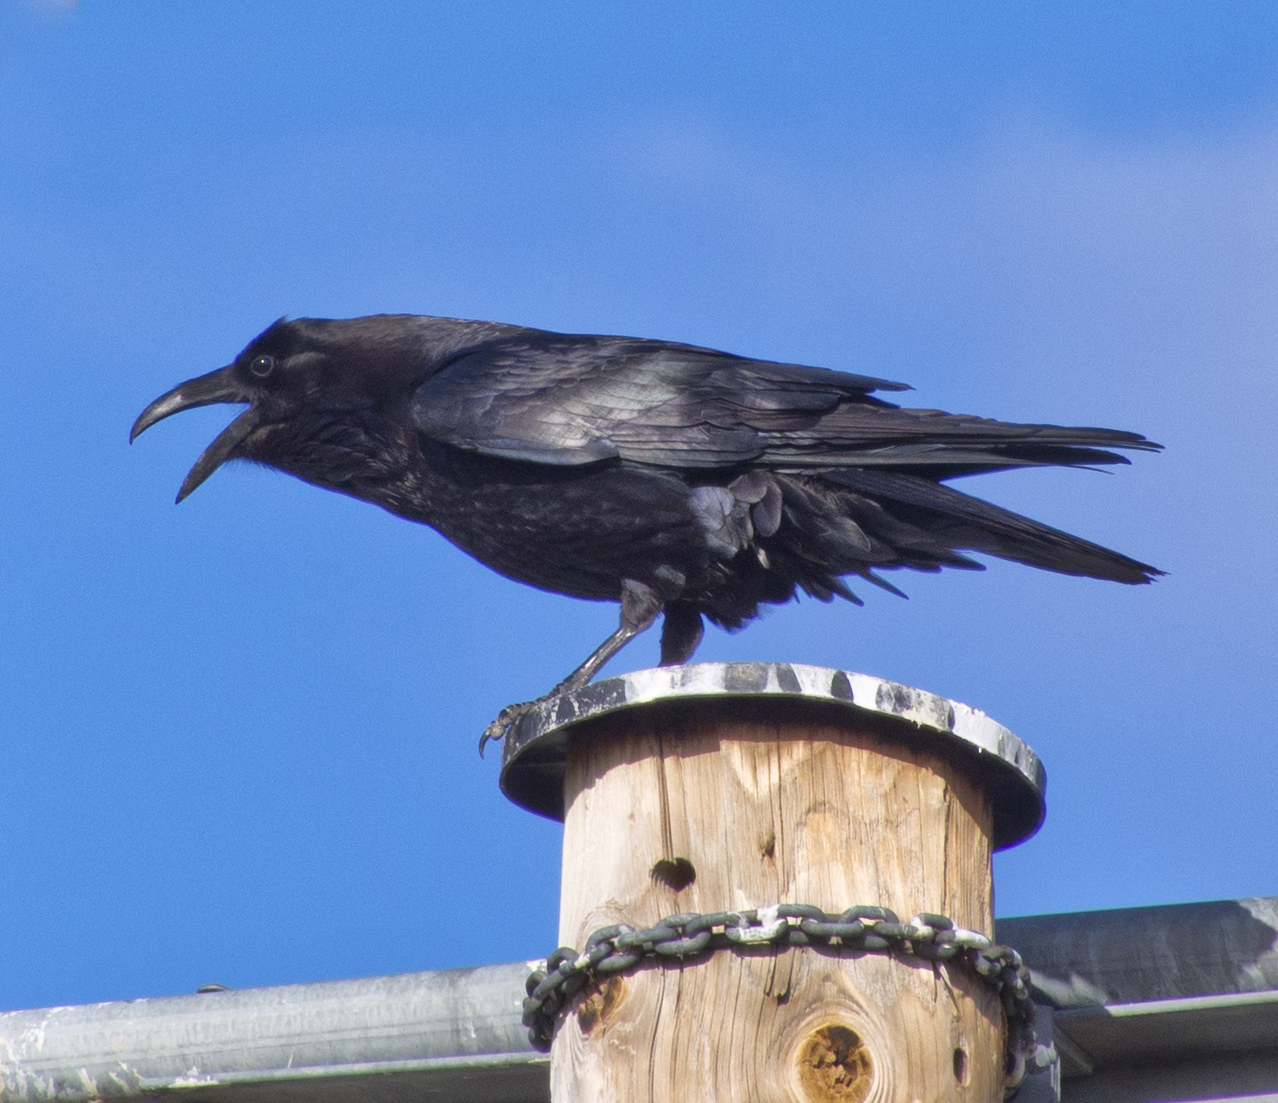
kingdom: Animalia
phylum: Chordata
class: Aves
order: Passeriformes
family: Corvidae
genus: Corvus
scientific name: Corvus corax
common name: Common raven
